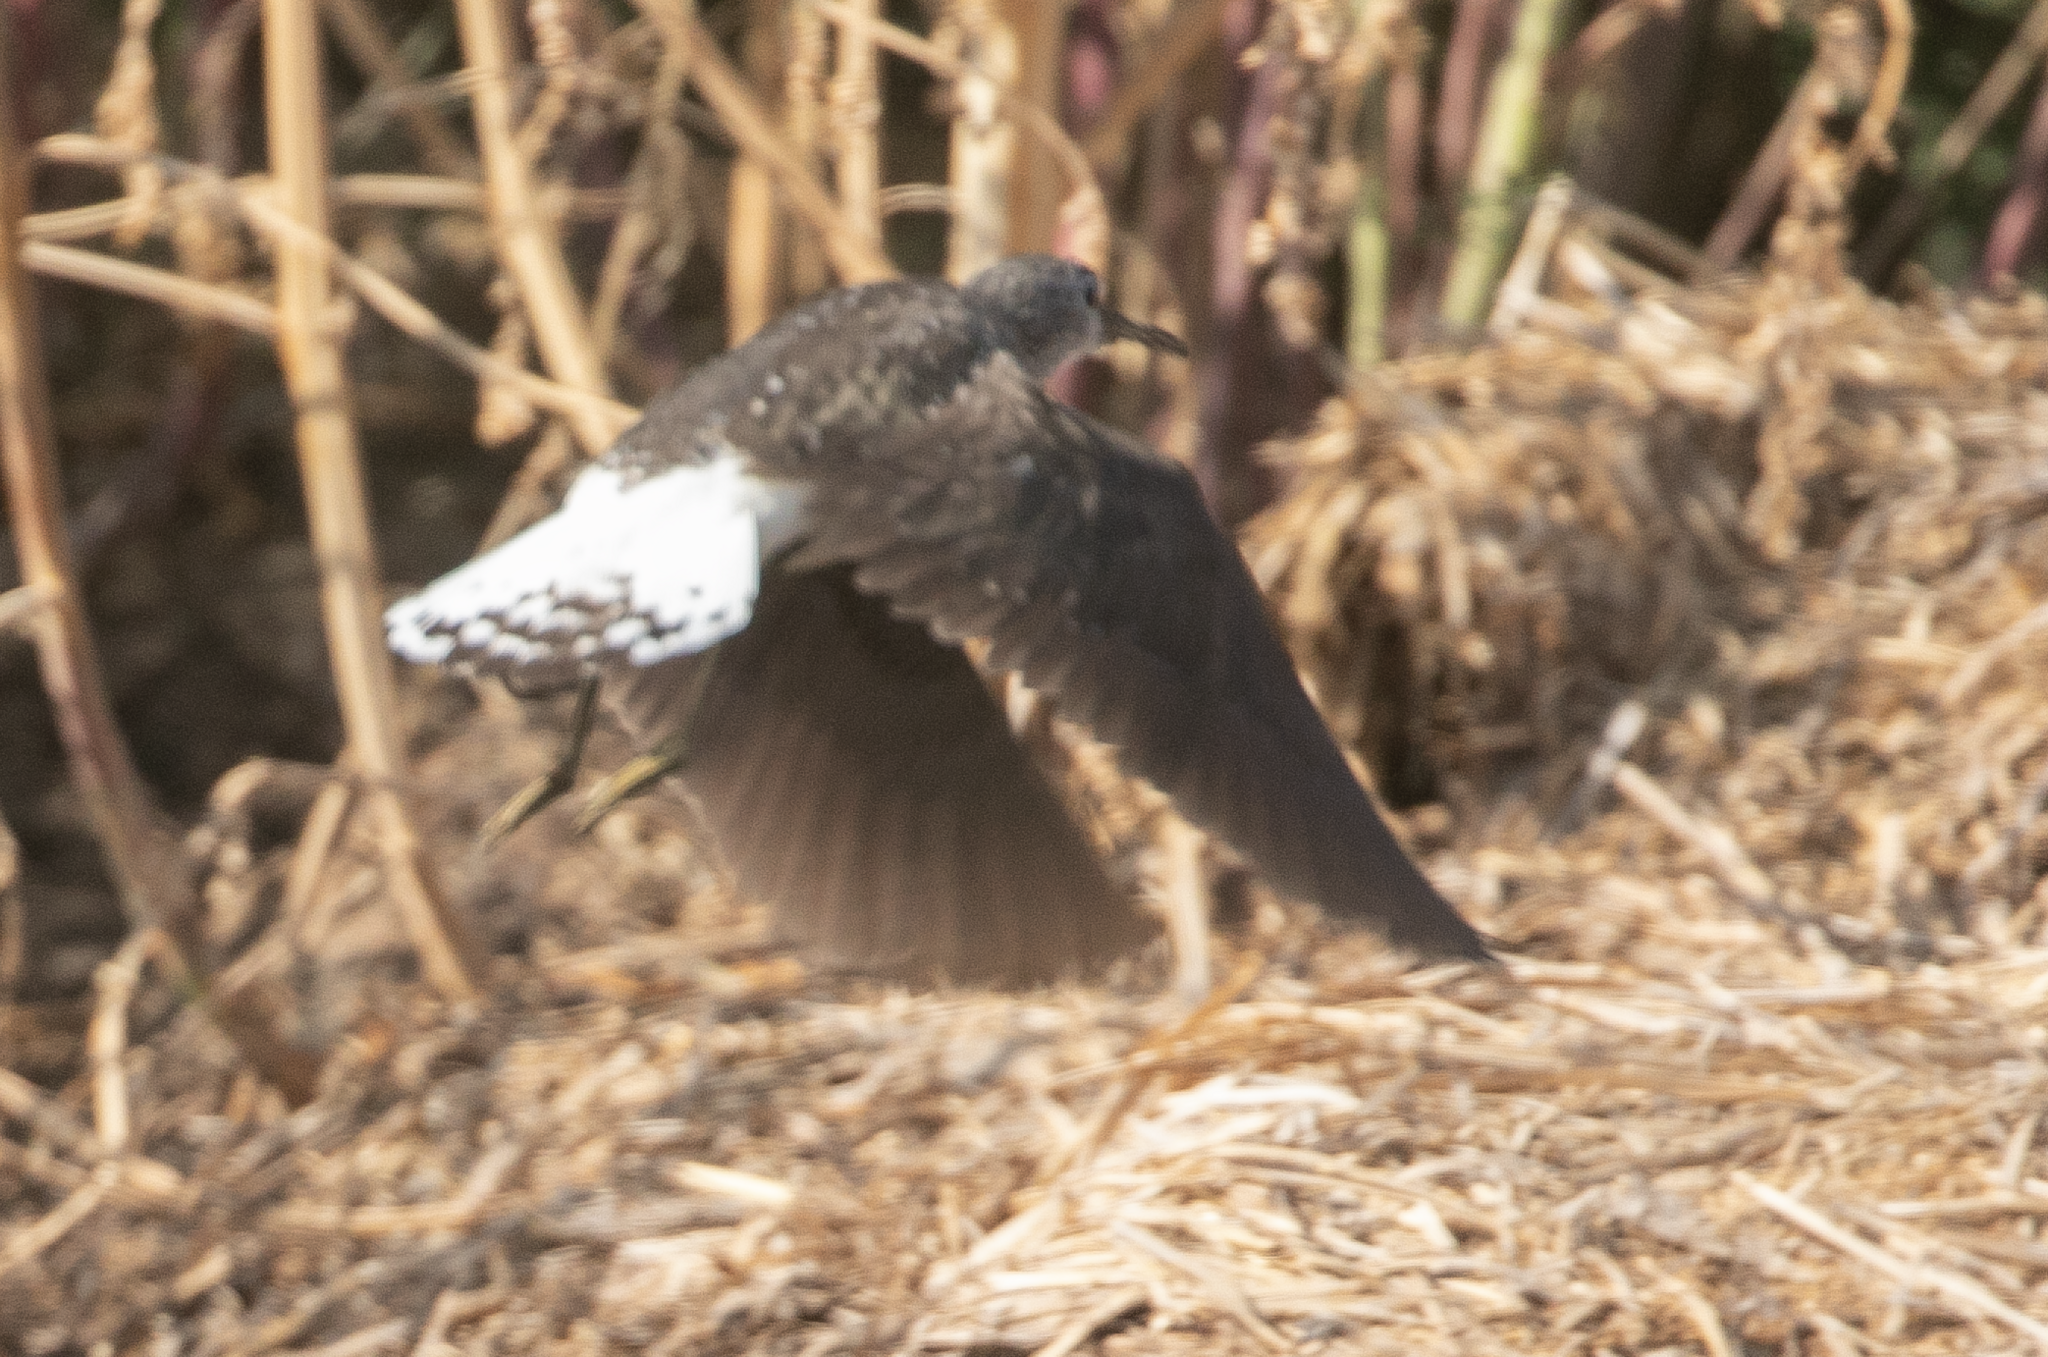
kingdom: Animalia
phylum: Chordata
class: Aves
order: Charadriiformes
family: Scolopacidae
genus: Tringa
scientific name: Tringa ochropus
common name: Green sandpiper
